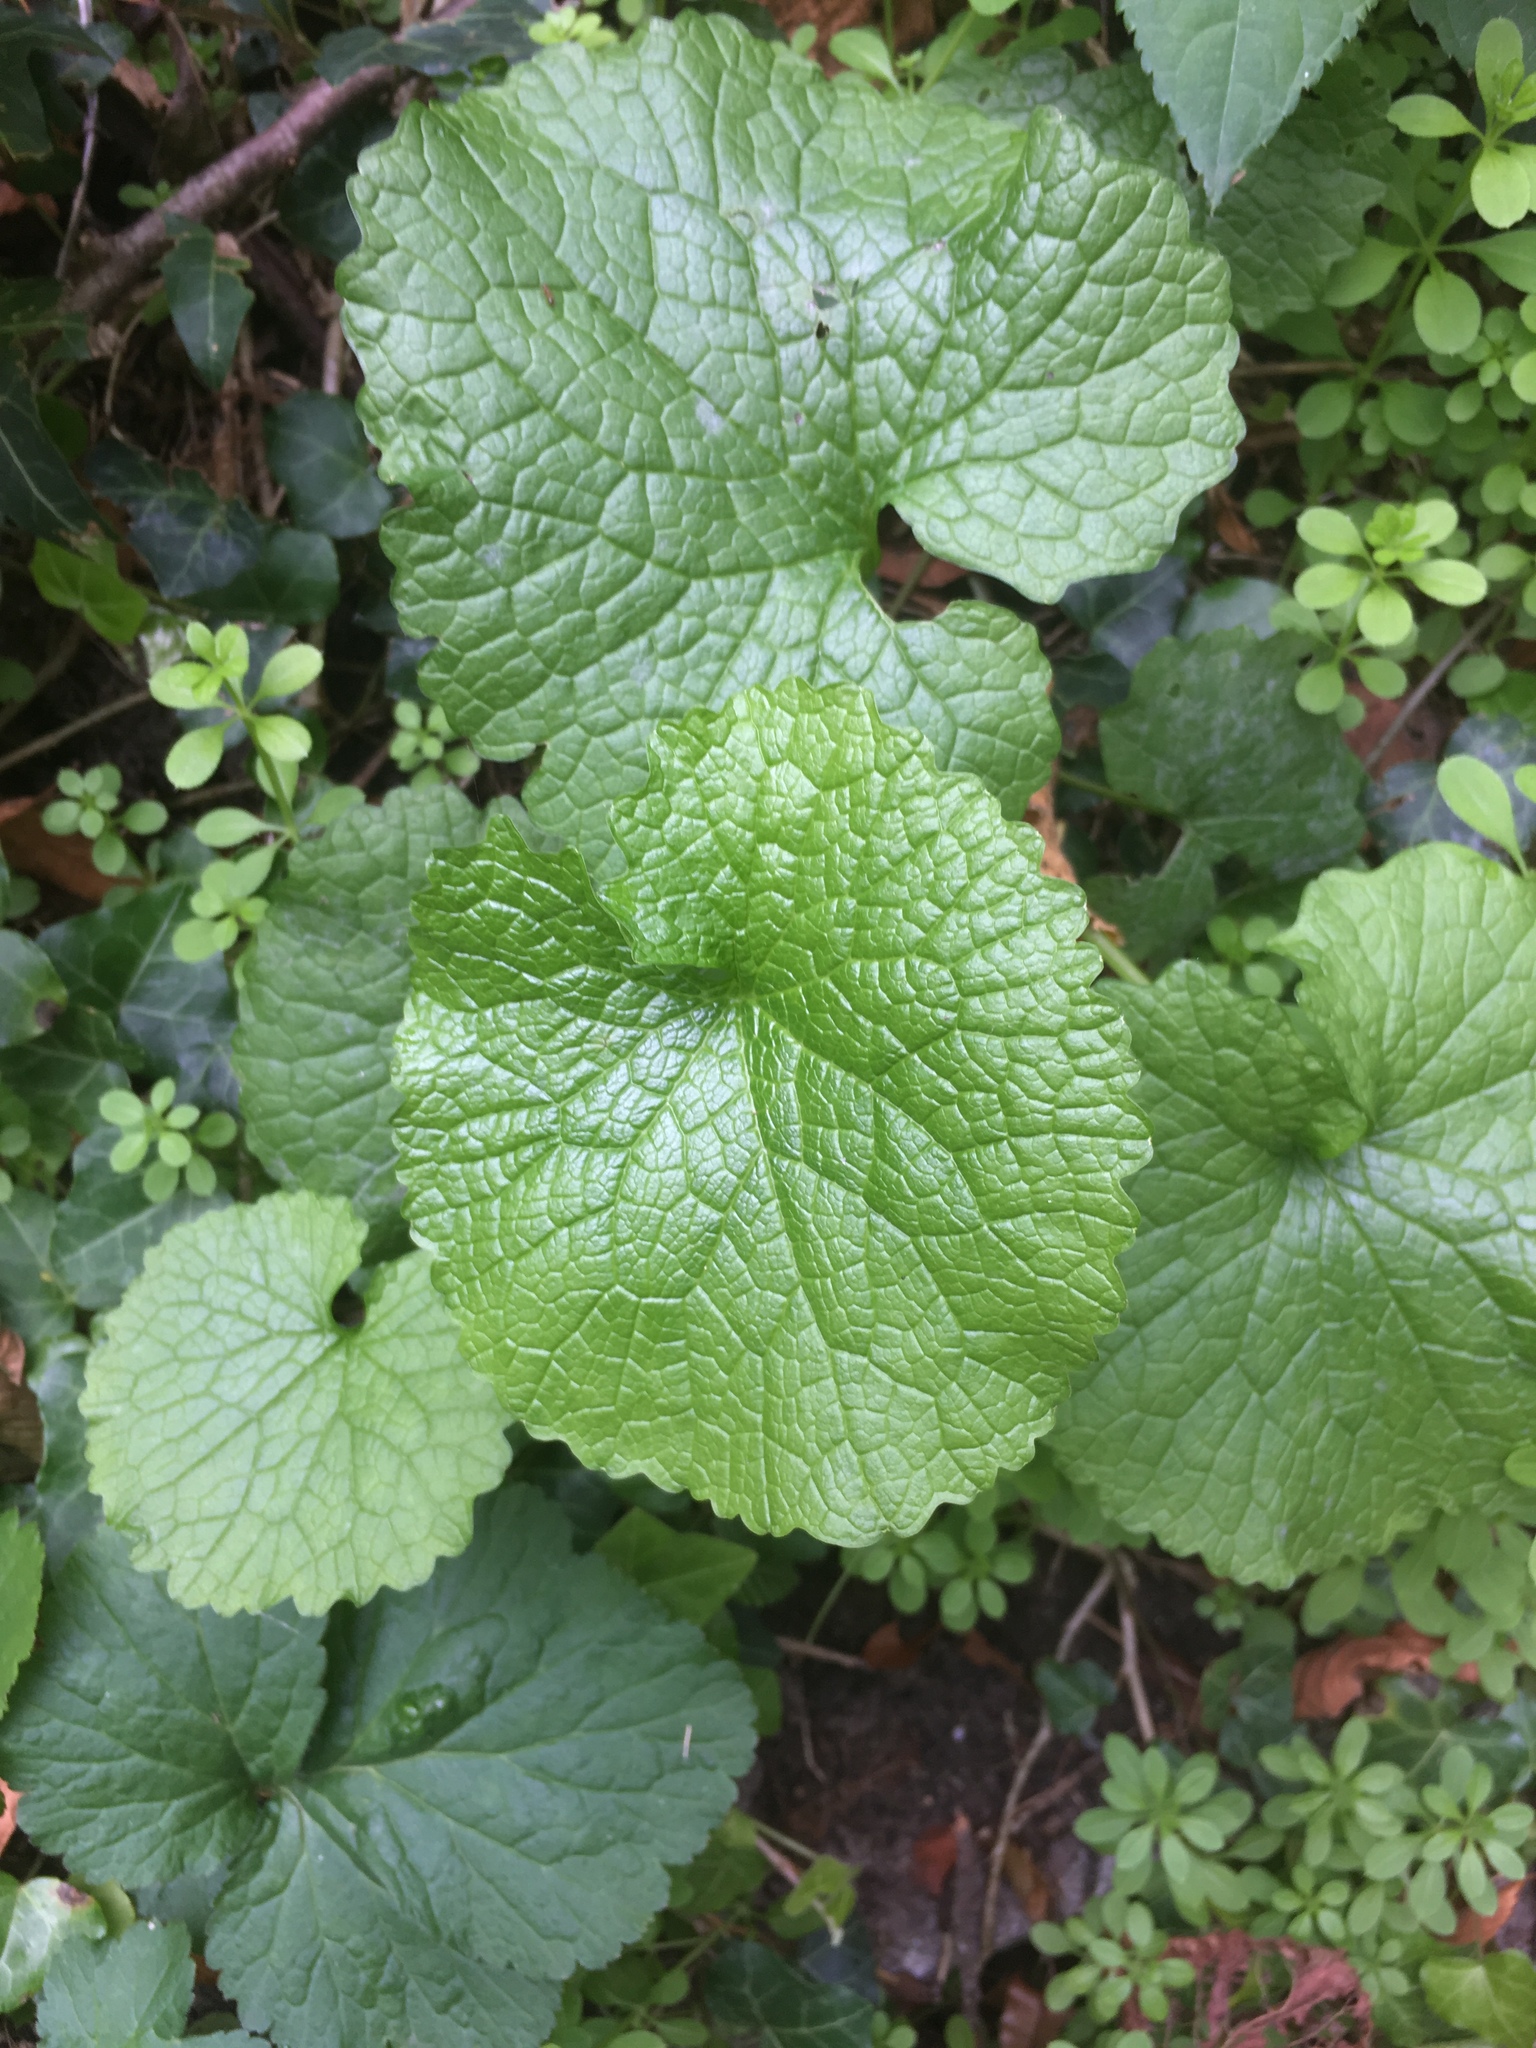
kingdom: Plantae
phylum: Tracheophyta
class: Magnoliopsida
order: Brassicales
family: Brassicaceae
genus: Alliaria
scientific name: Alliaria petiolata
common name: Garlic mustard
